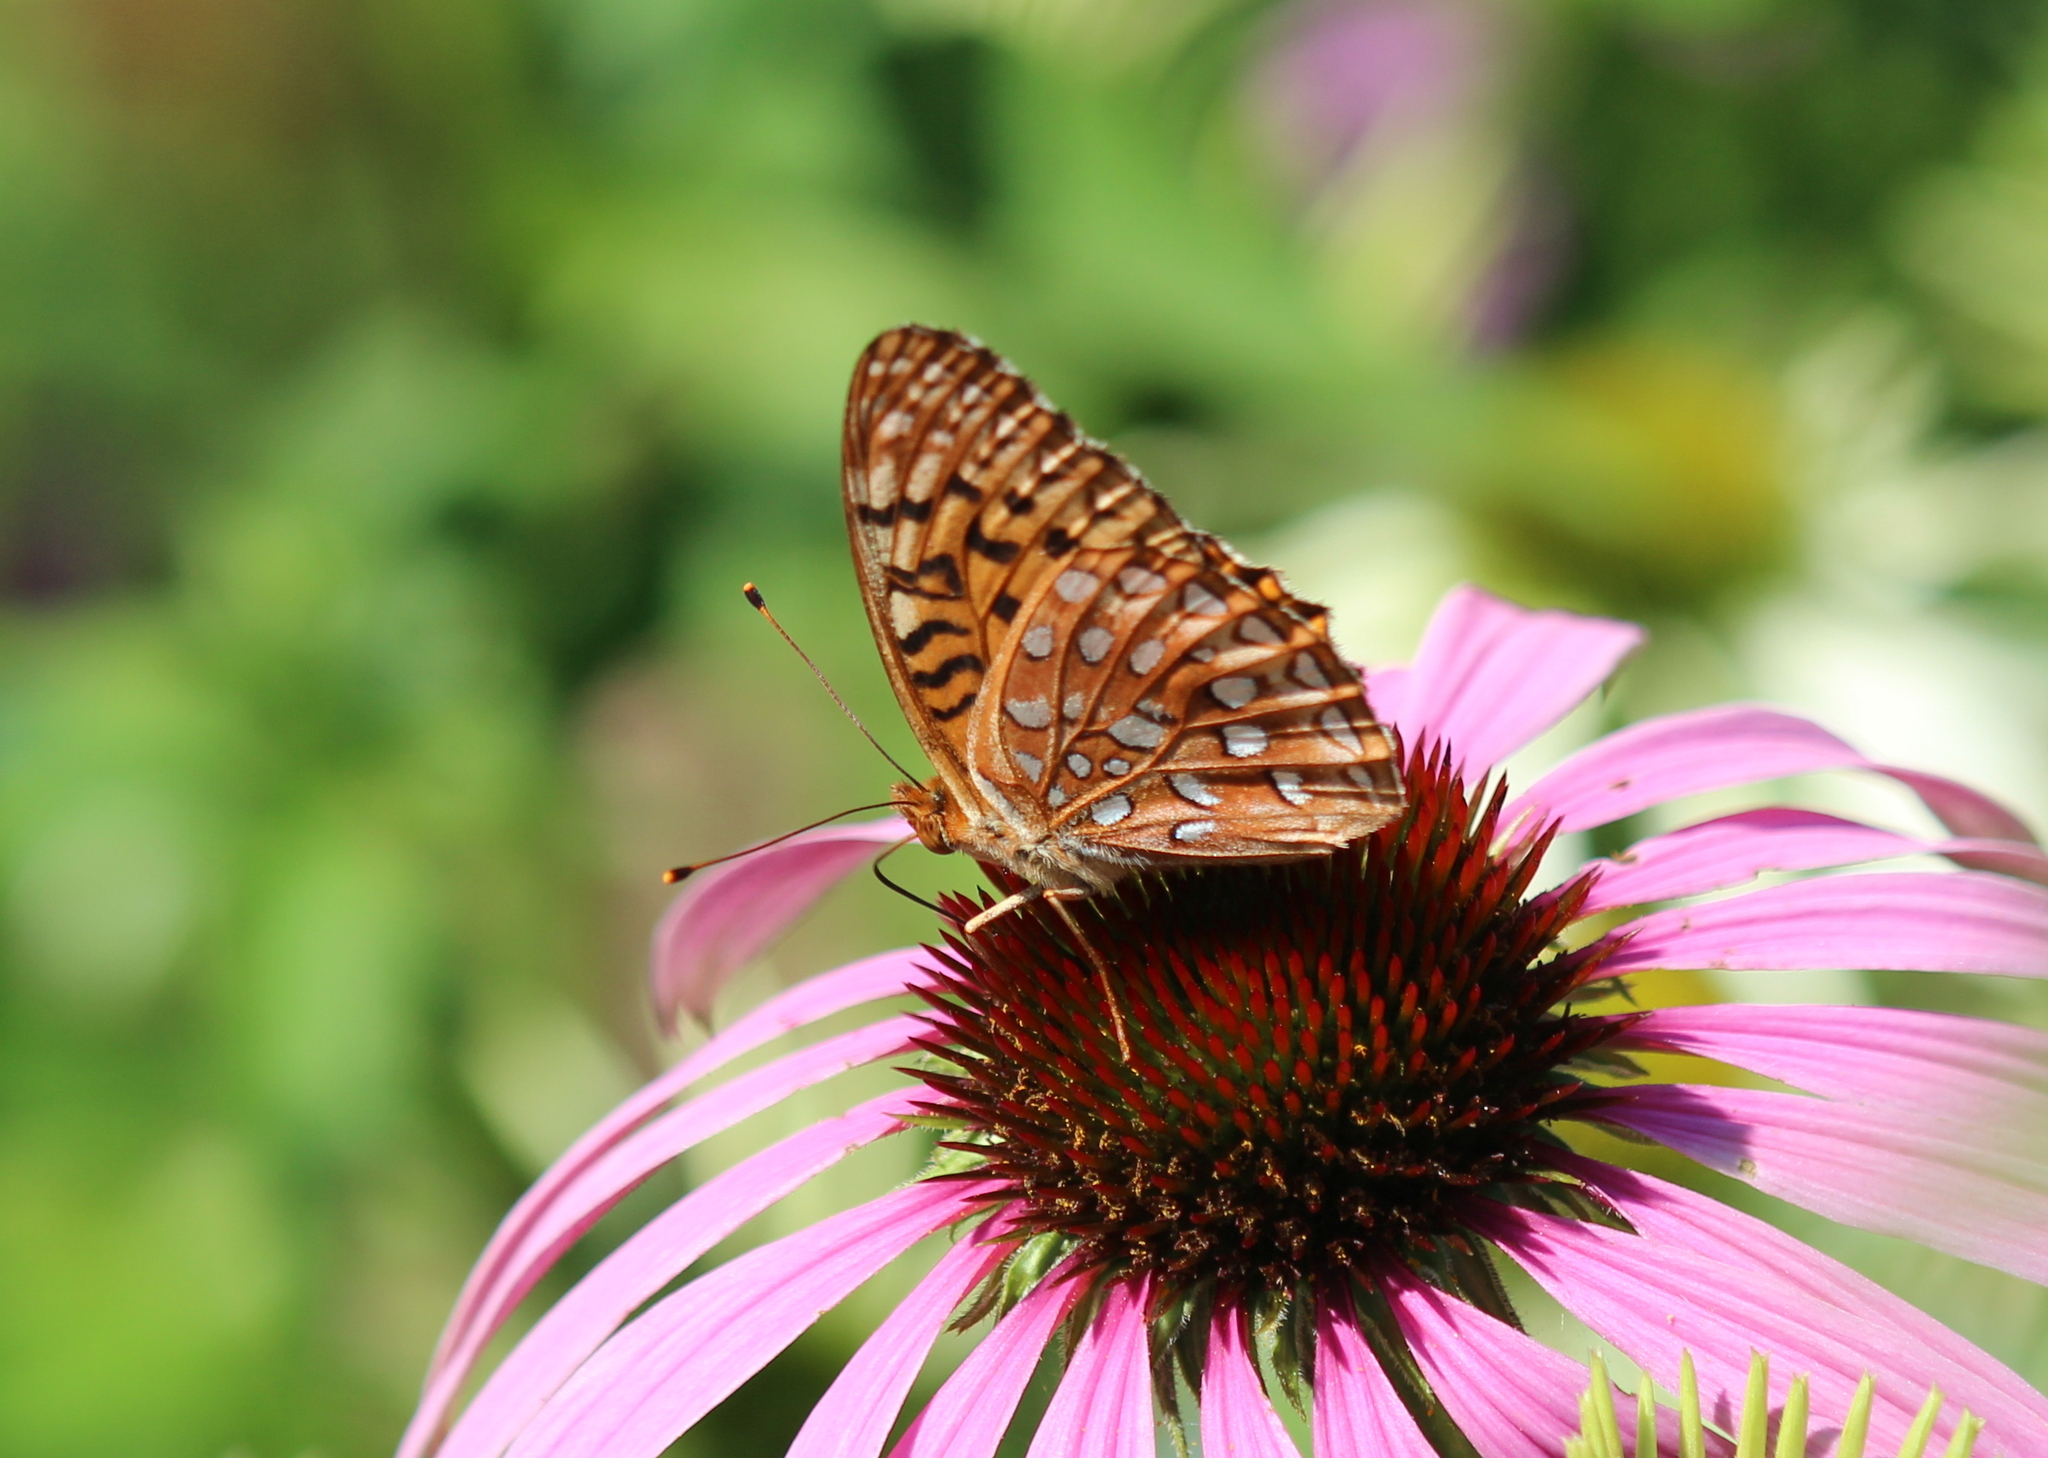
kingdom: Animalia
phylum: Arthropoda
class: Insecta
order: Lepidoptera
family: Nymphalidae
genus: Speyeria
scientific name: Speyeria aphrodite
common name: Aphrodite friitllary
